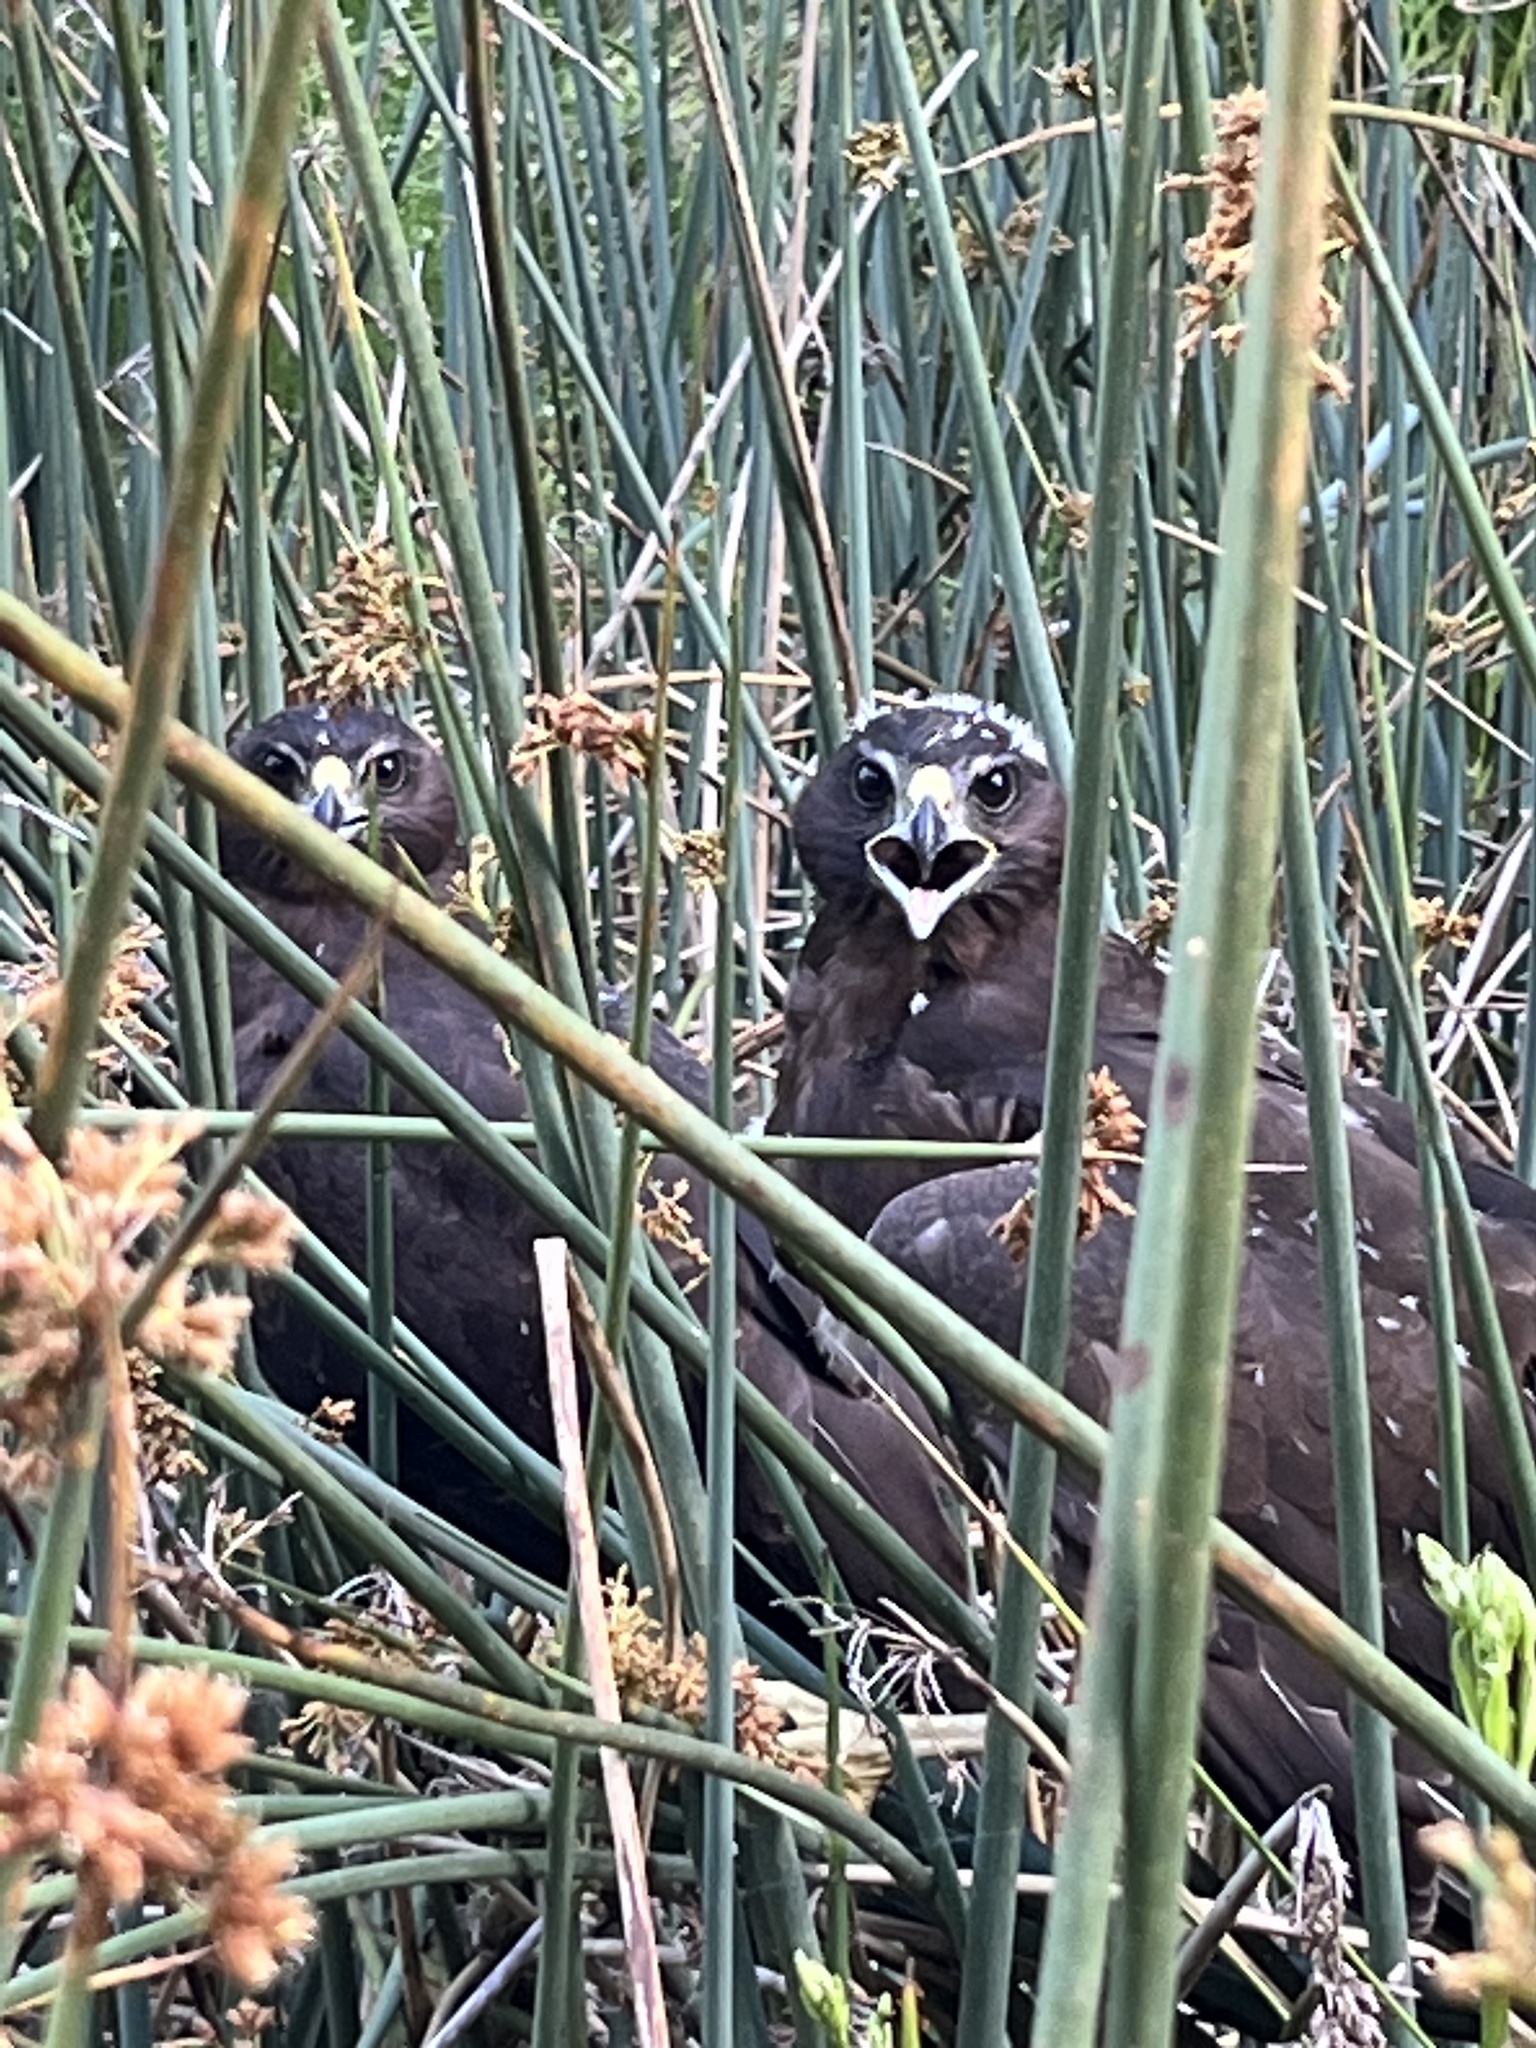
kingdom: Animalia
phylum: Chordata
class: Aves
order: Accipitriformes
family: Accipitridae
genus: Circus
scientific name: Circus approximans
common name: Swamp harrier
